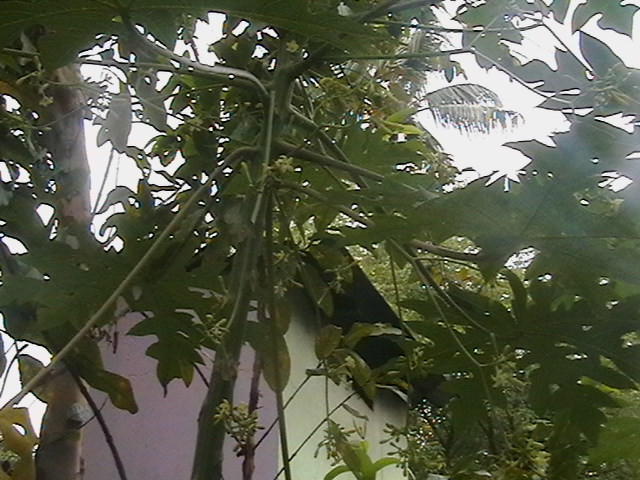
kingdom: Plantae
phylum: Tracheophyta
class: Magnoliopsida
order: Brassicales
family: Caricaceae
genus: Carica
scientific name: Carica papaya
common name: Papaya
